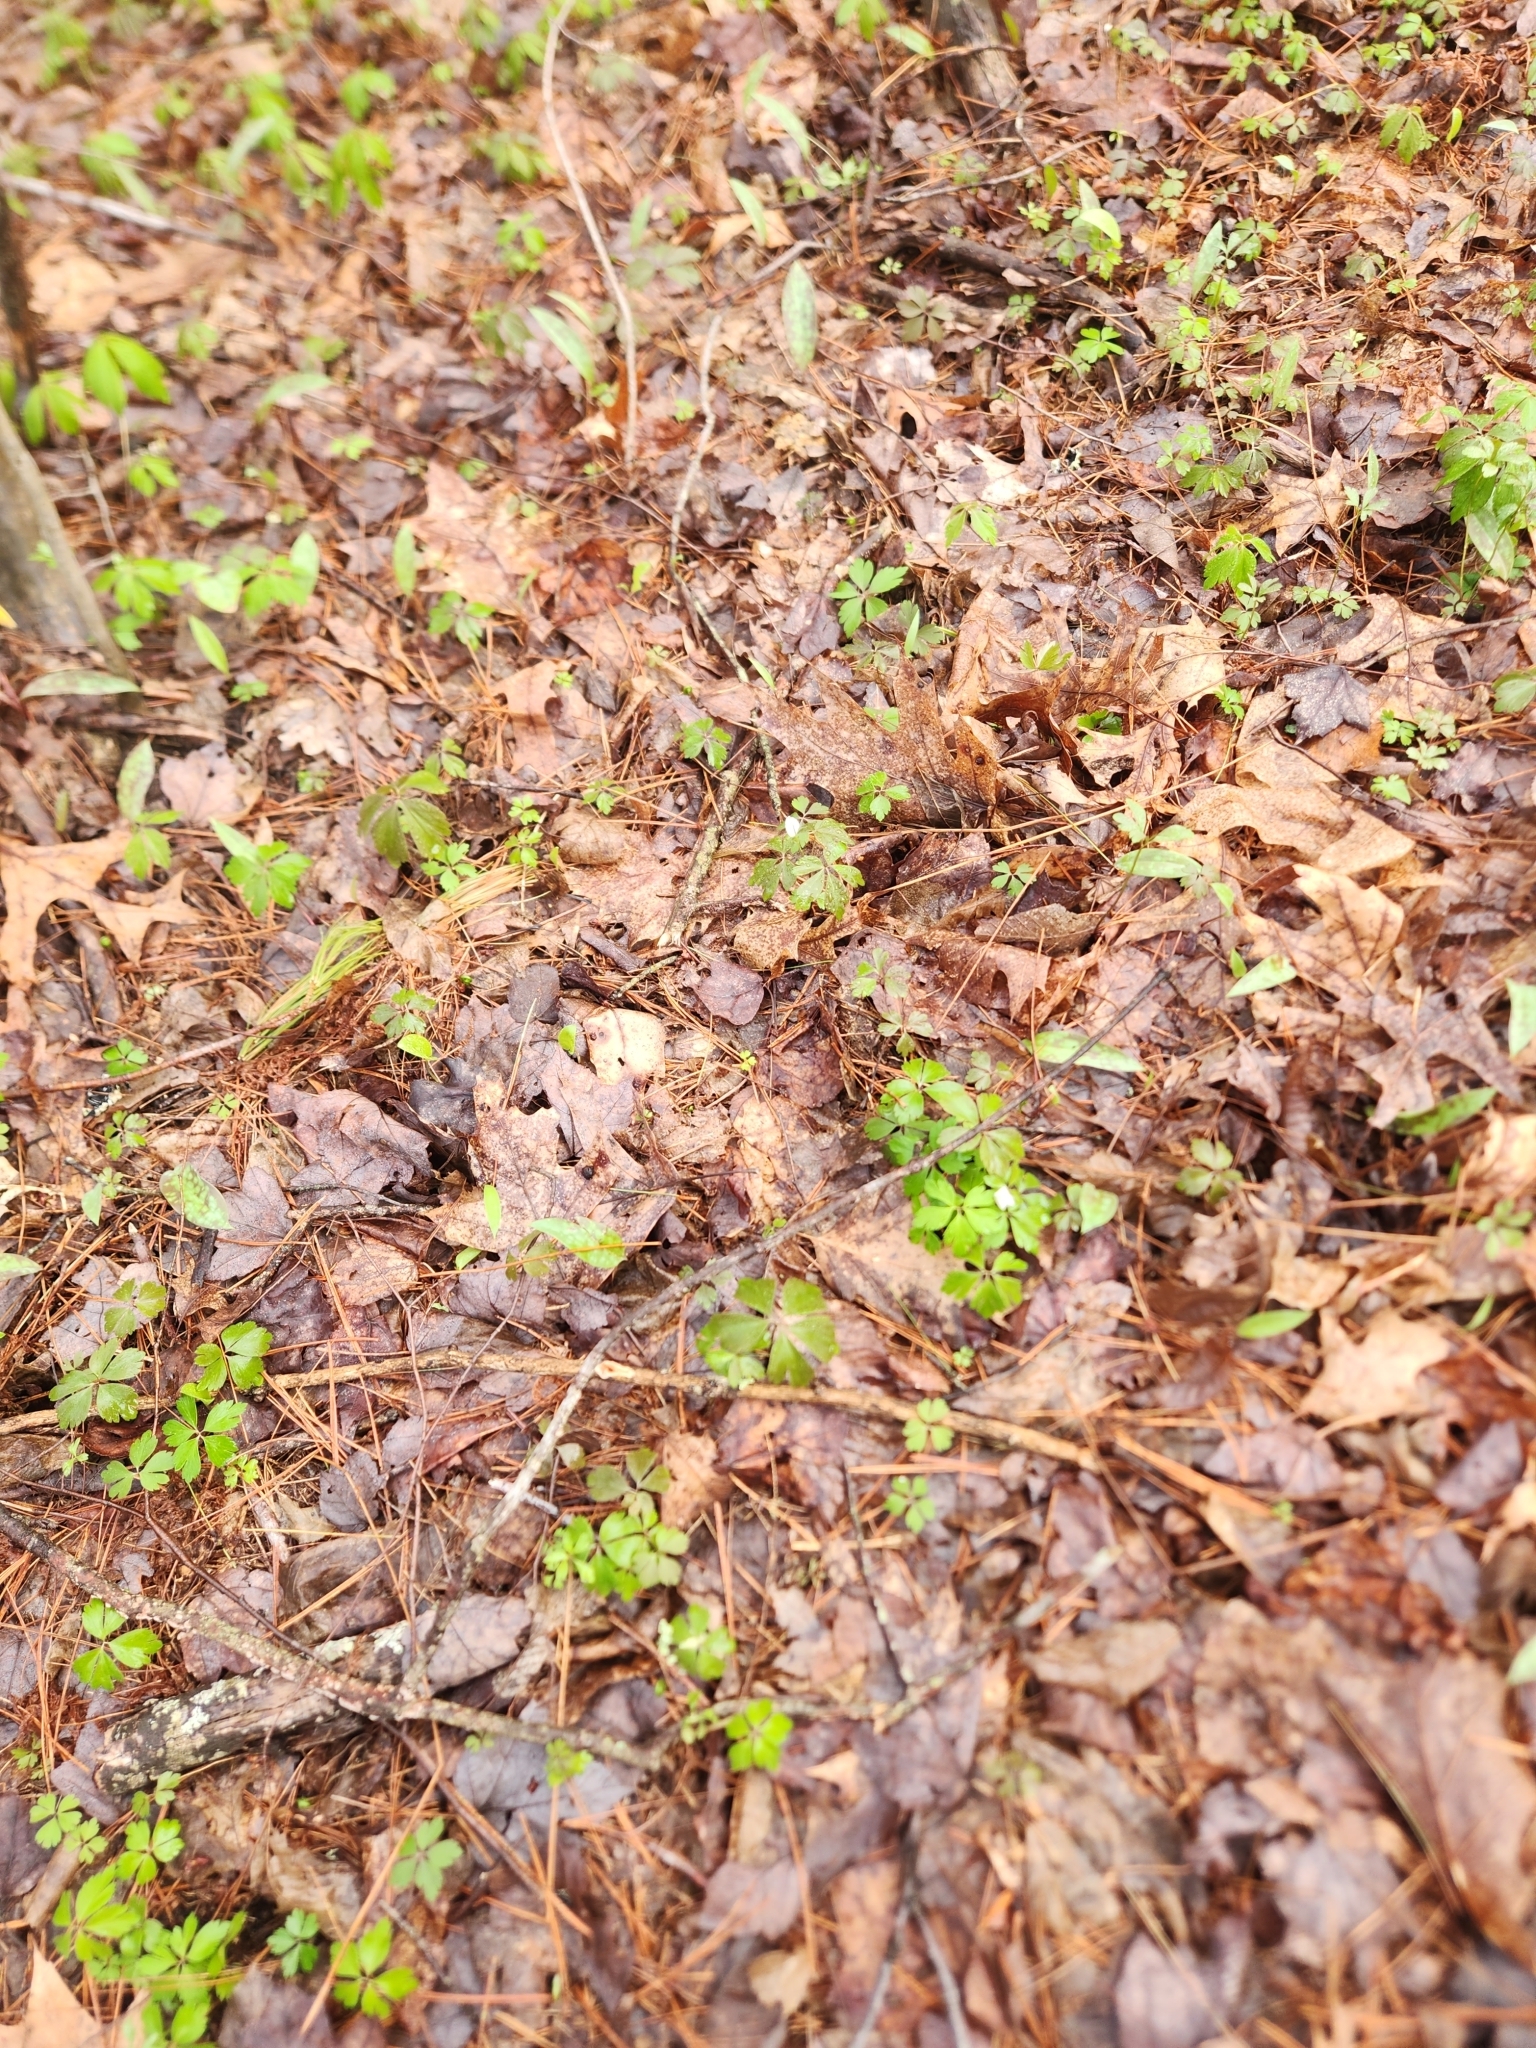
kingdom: Plantae
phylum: Tracheophyta
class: Magnoliopsida
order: Ranunculales
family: Ranunculaceae
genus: Anemone
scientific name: Anemone quinquefolia
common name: Wood anemone
